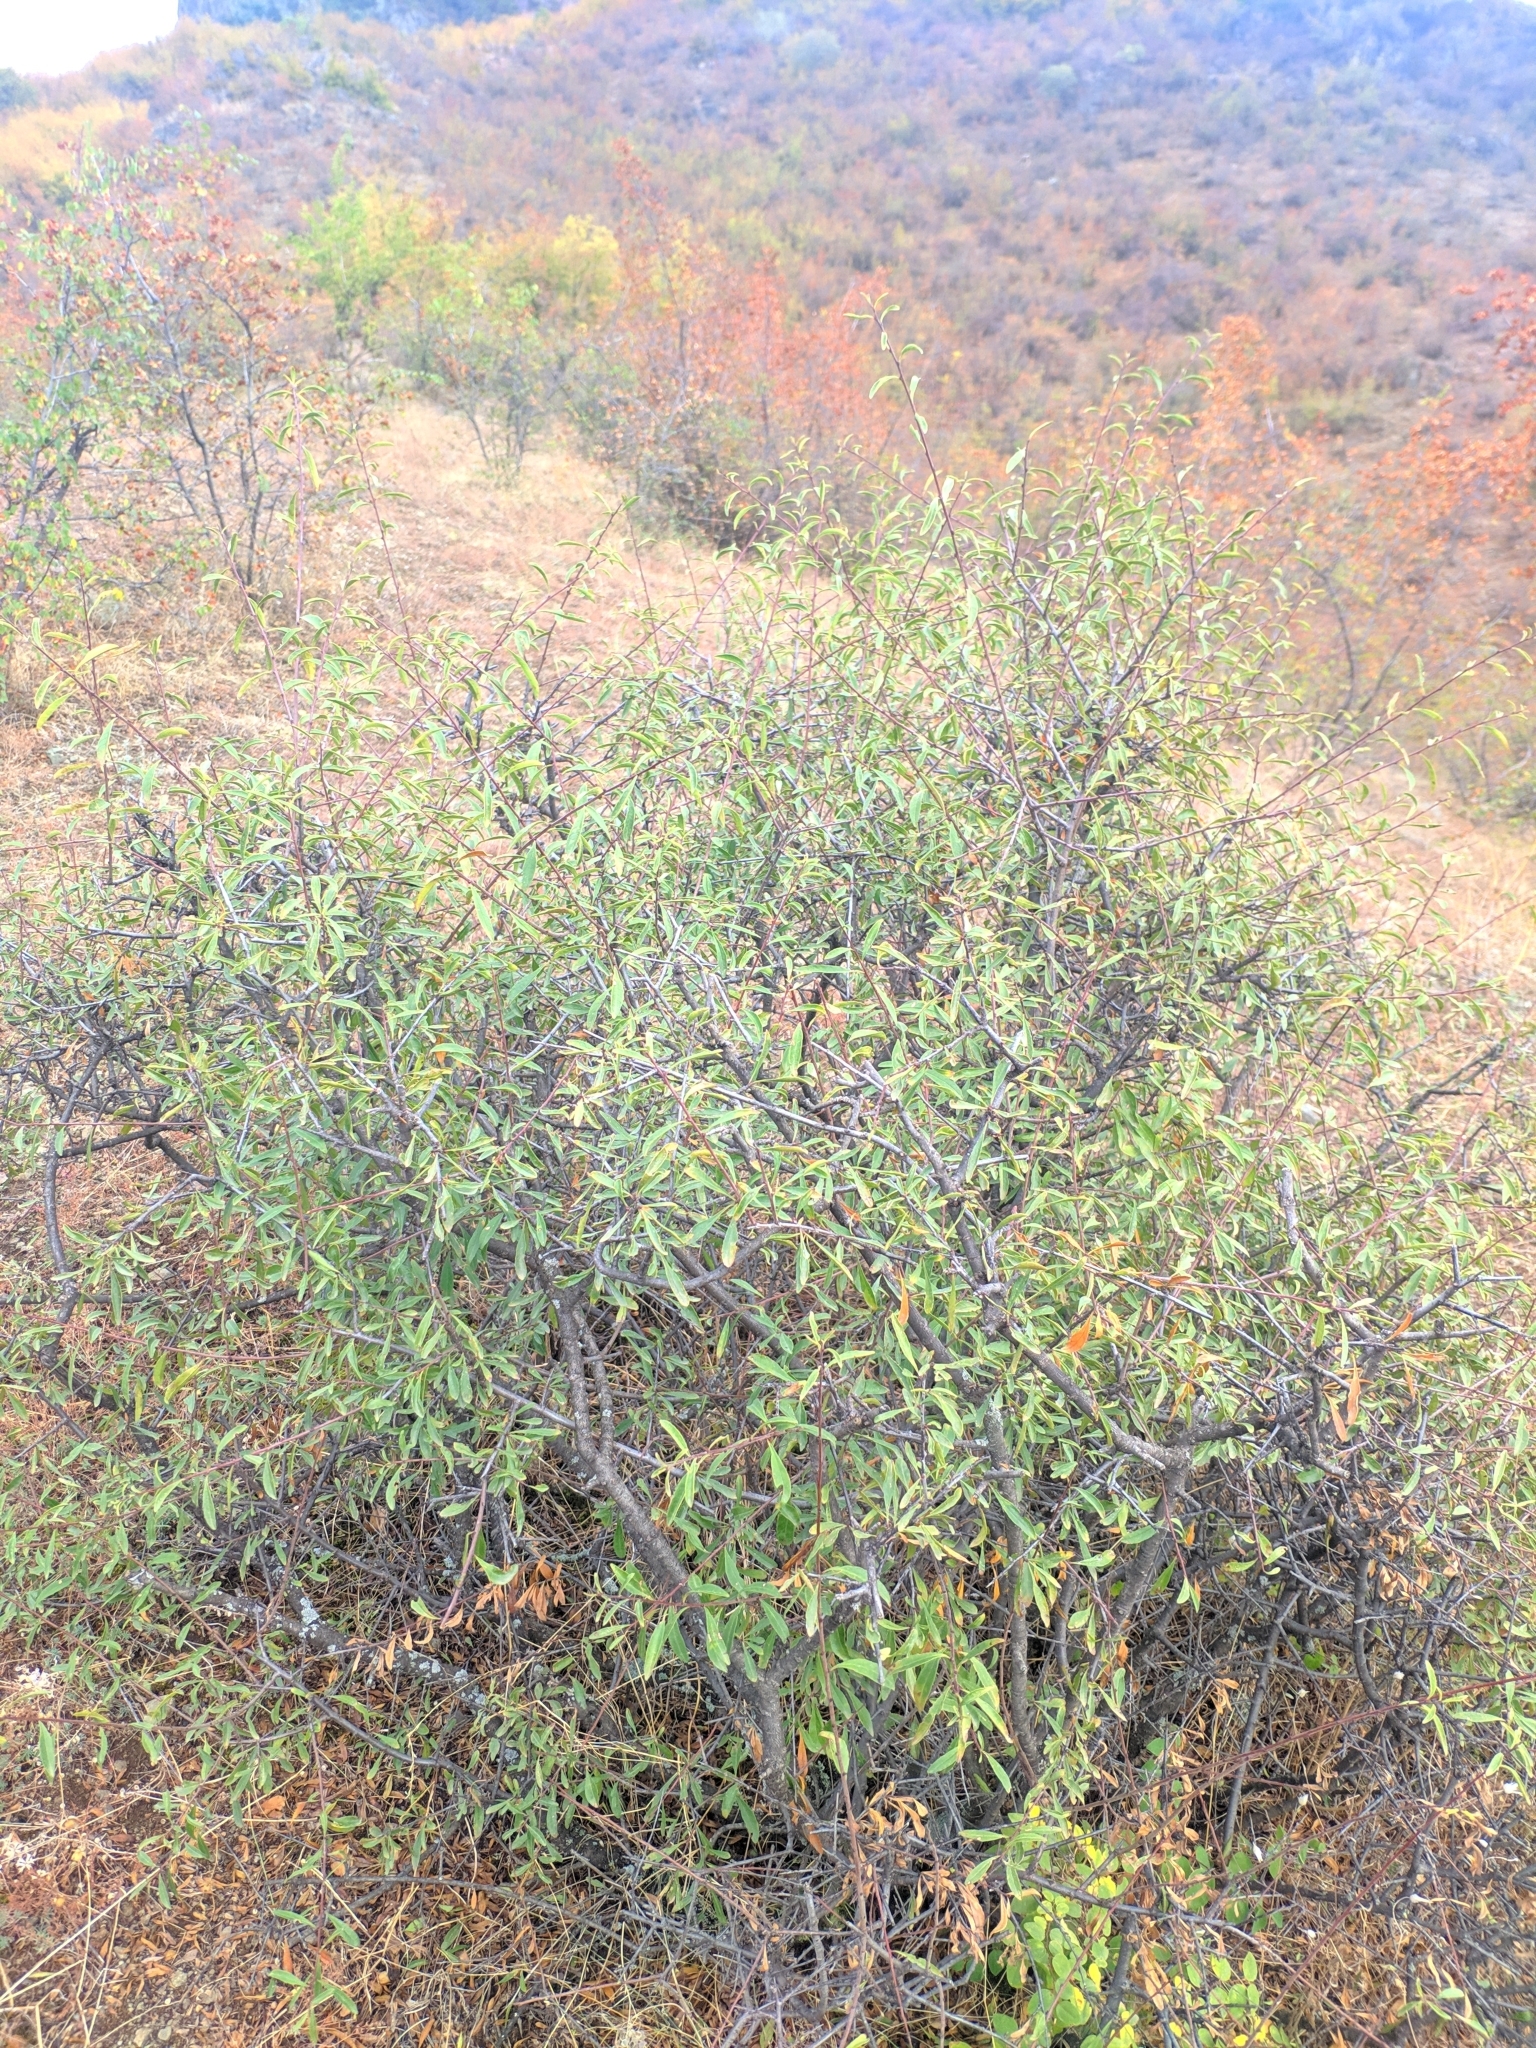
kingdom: Plantae
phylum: Tracheophyta
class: Magnoliopsida
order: Rosales
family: Rhamnaceae
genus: Rhamnus
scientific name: Rhamnus erythroxyloides
